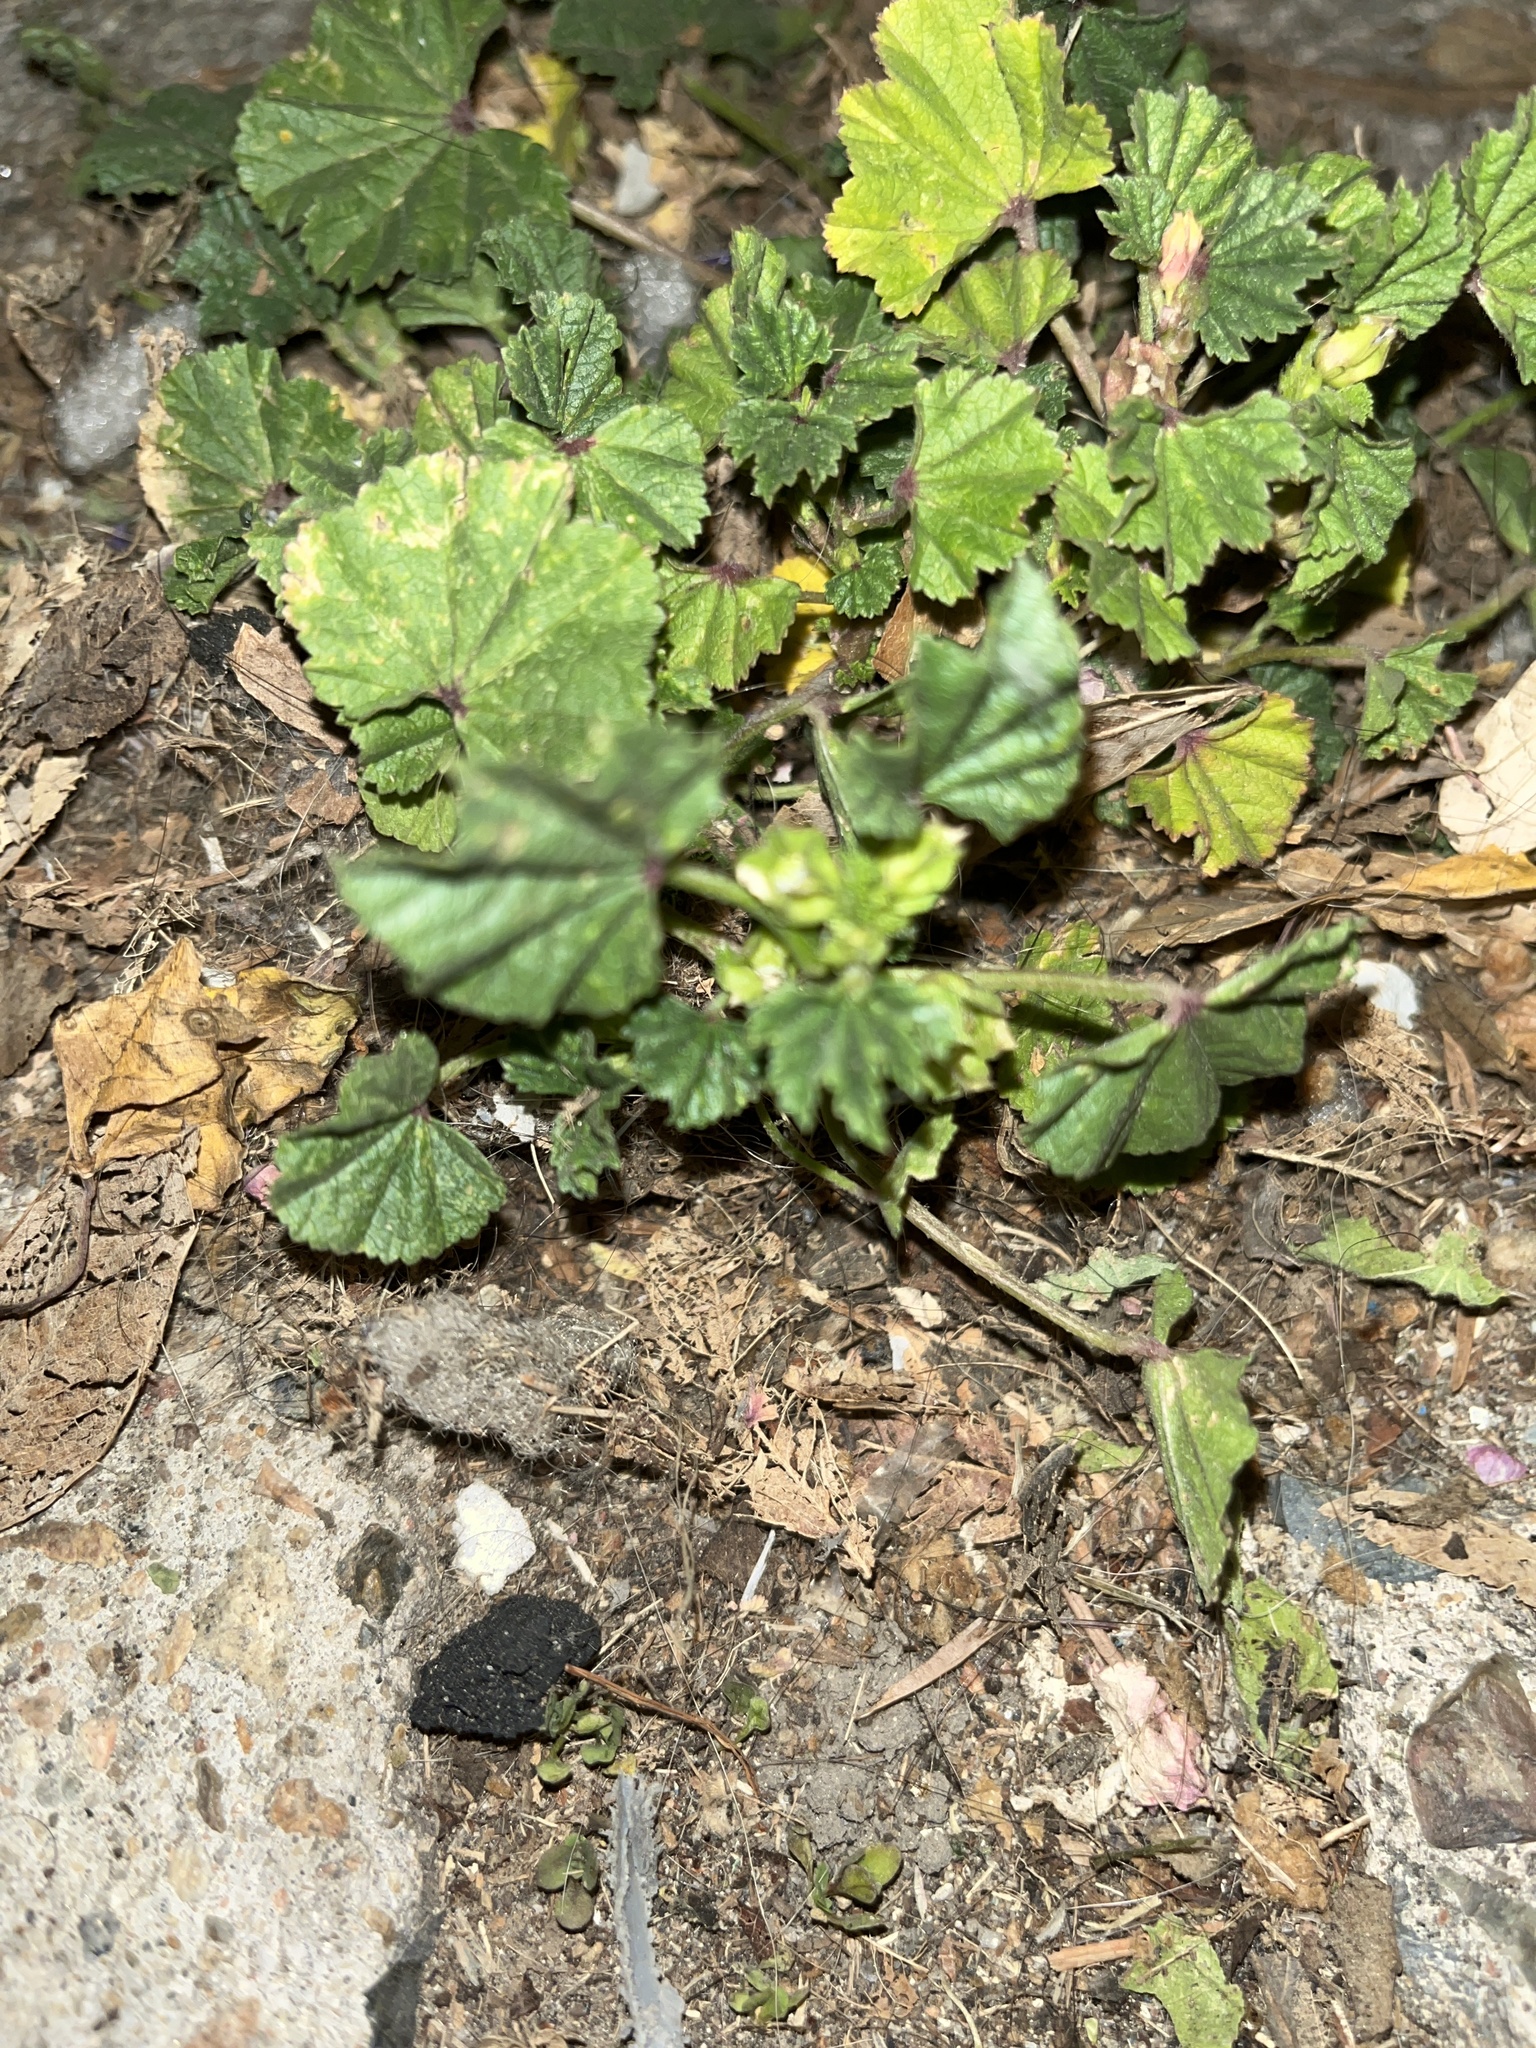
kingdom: Plantae
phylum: Tracheophyta
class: Magnoliopsida
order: Malvales
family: Malvaceae
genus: Malva
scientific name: Malva parviflora
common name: Least mallow
